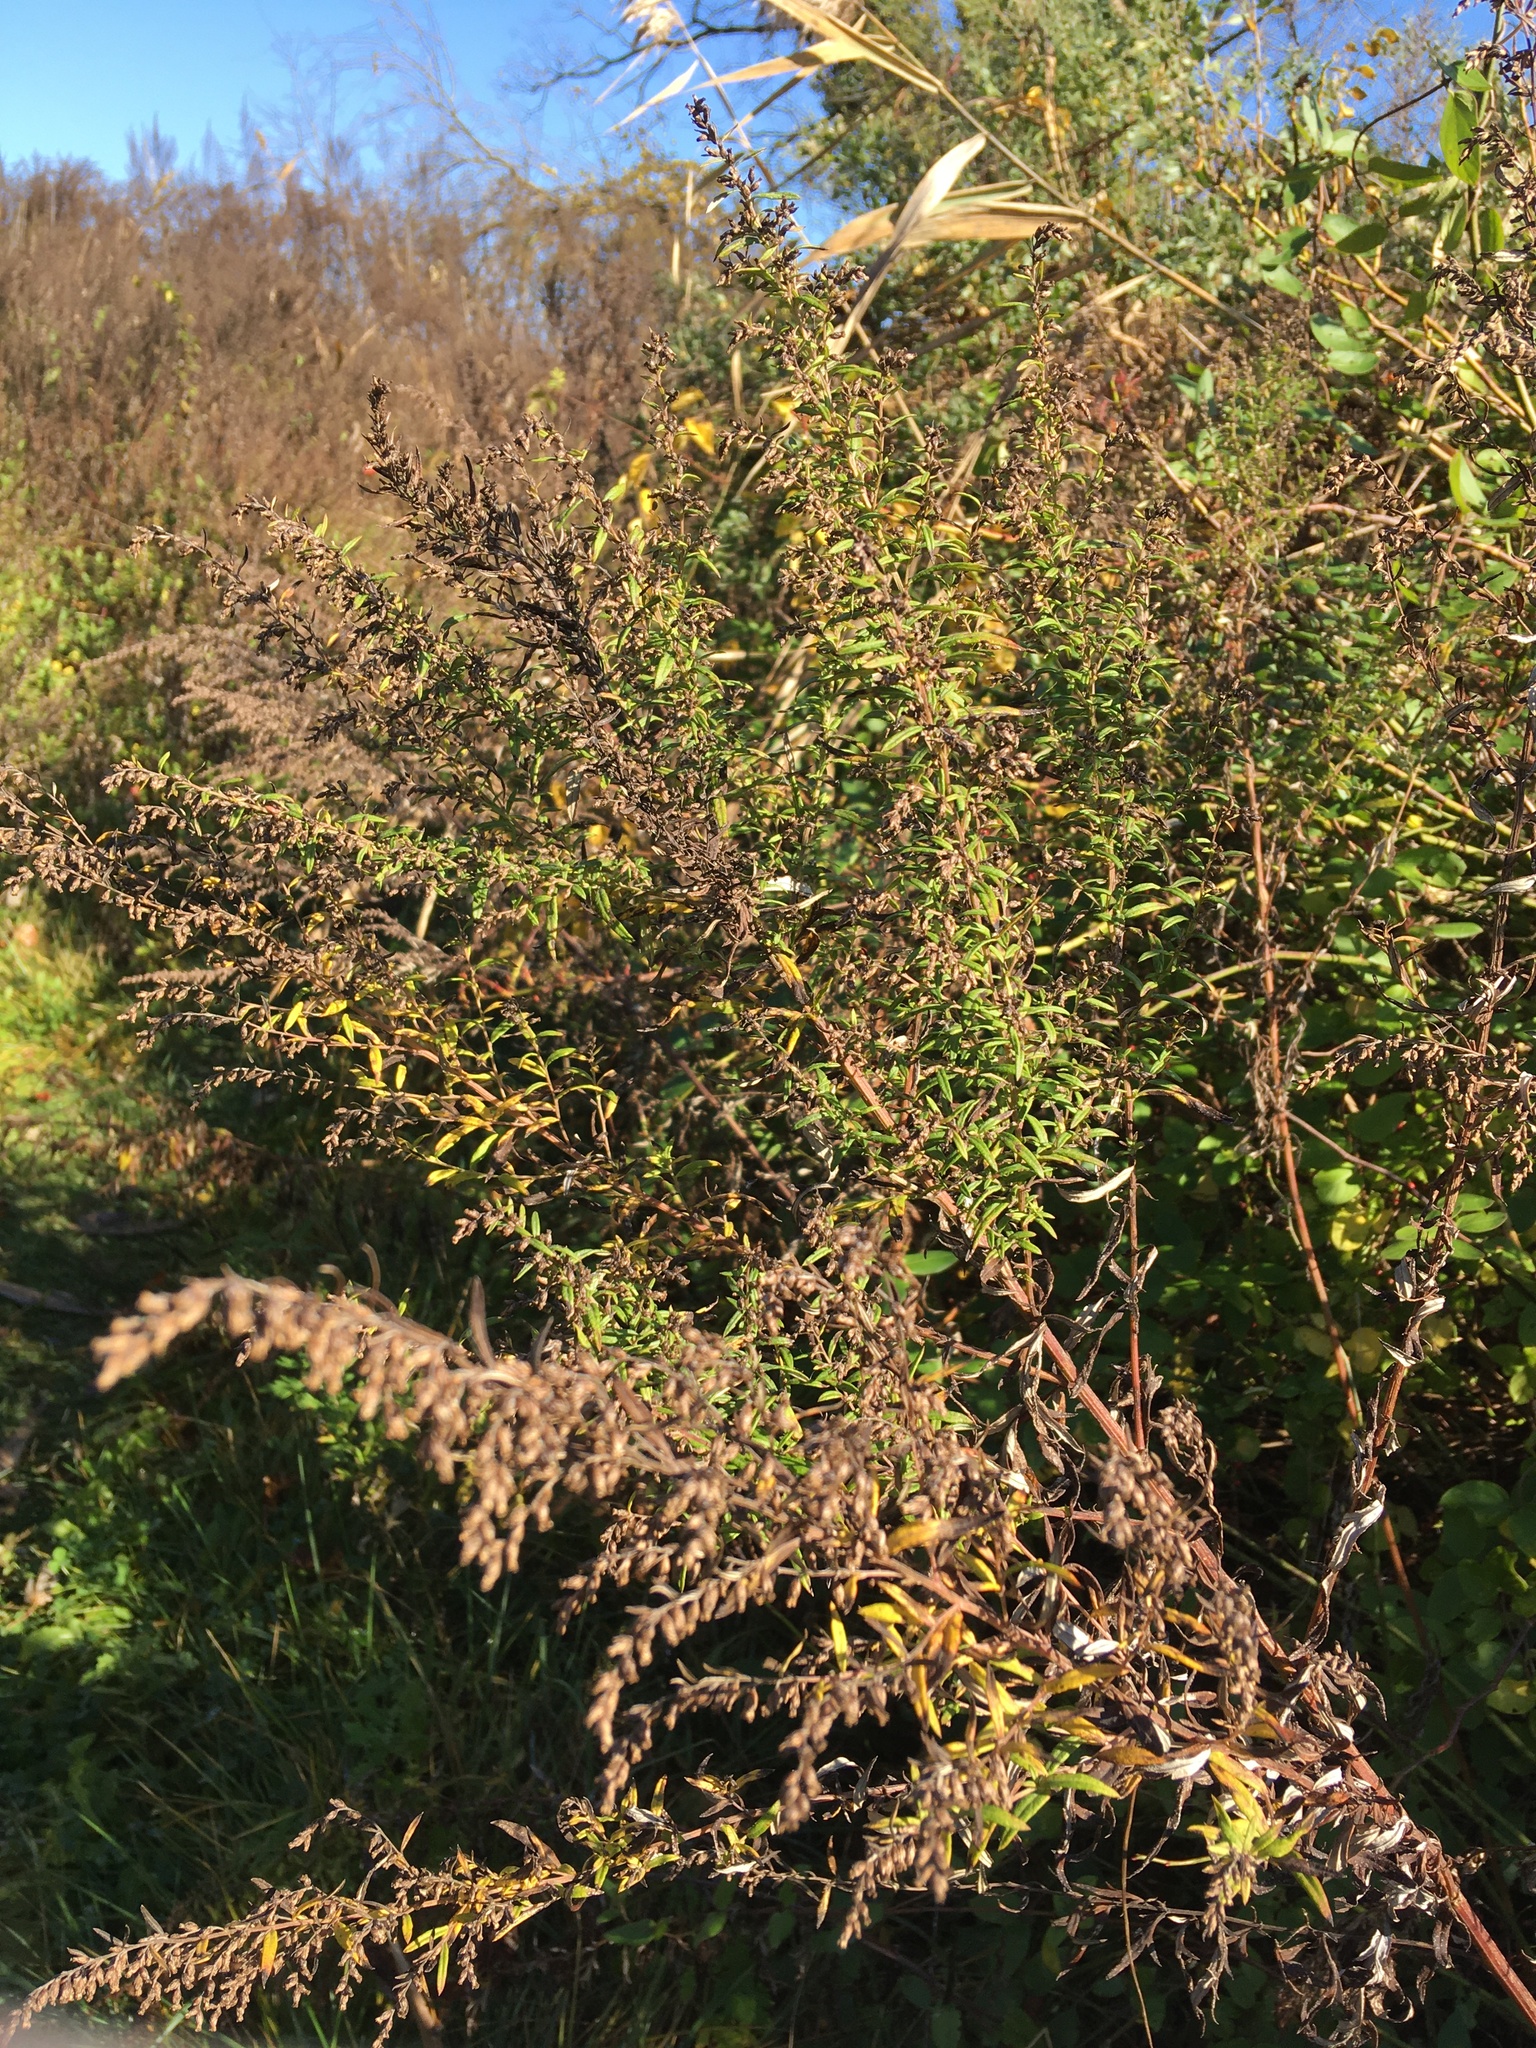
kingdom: Plantae
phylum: Tracheophyta
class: Magnoliopsida
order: Asterales
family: Asteraceae
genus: Artemisia
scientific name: Artemisia vulgaris
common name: Mugwort
